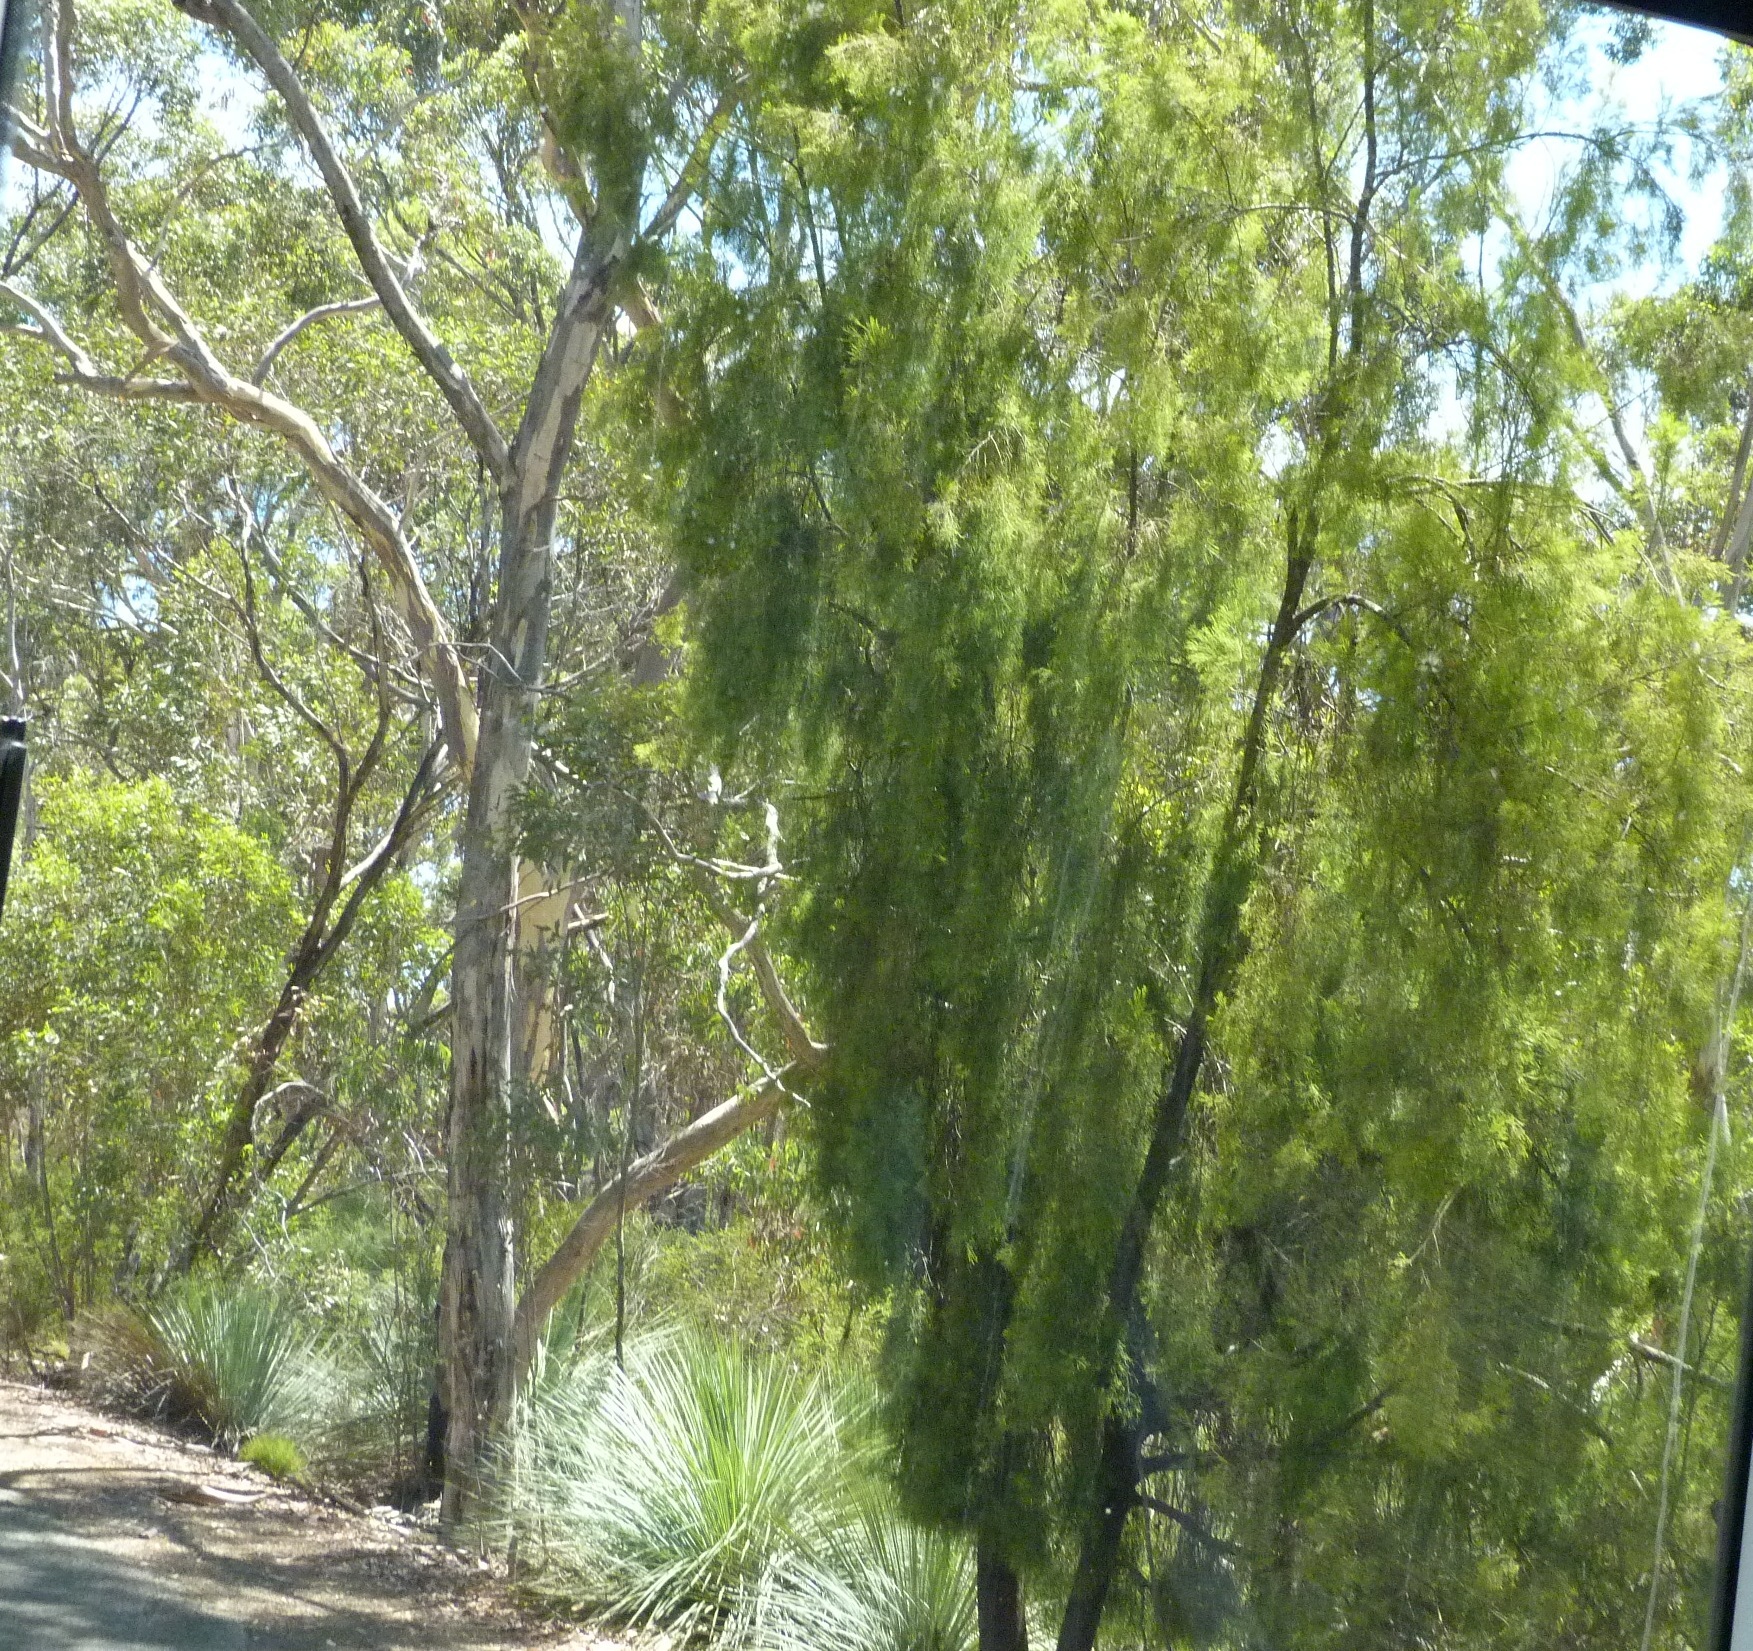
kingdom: Plantae
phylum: Tracheophyta
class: Magnoliopsida
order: Santalales
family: Santalaceae
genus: Exocarpos
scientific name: Exocarpos cupressiformis
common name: Cherry ballart
